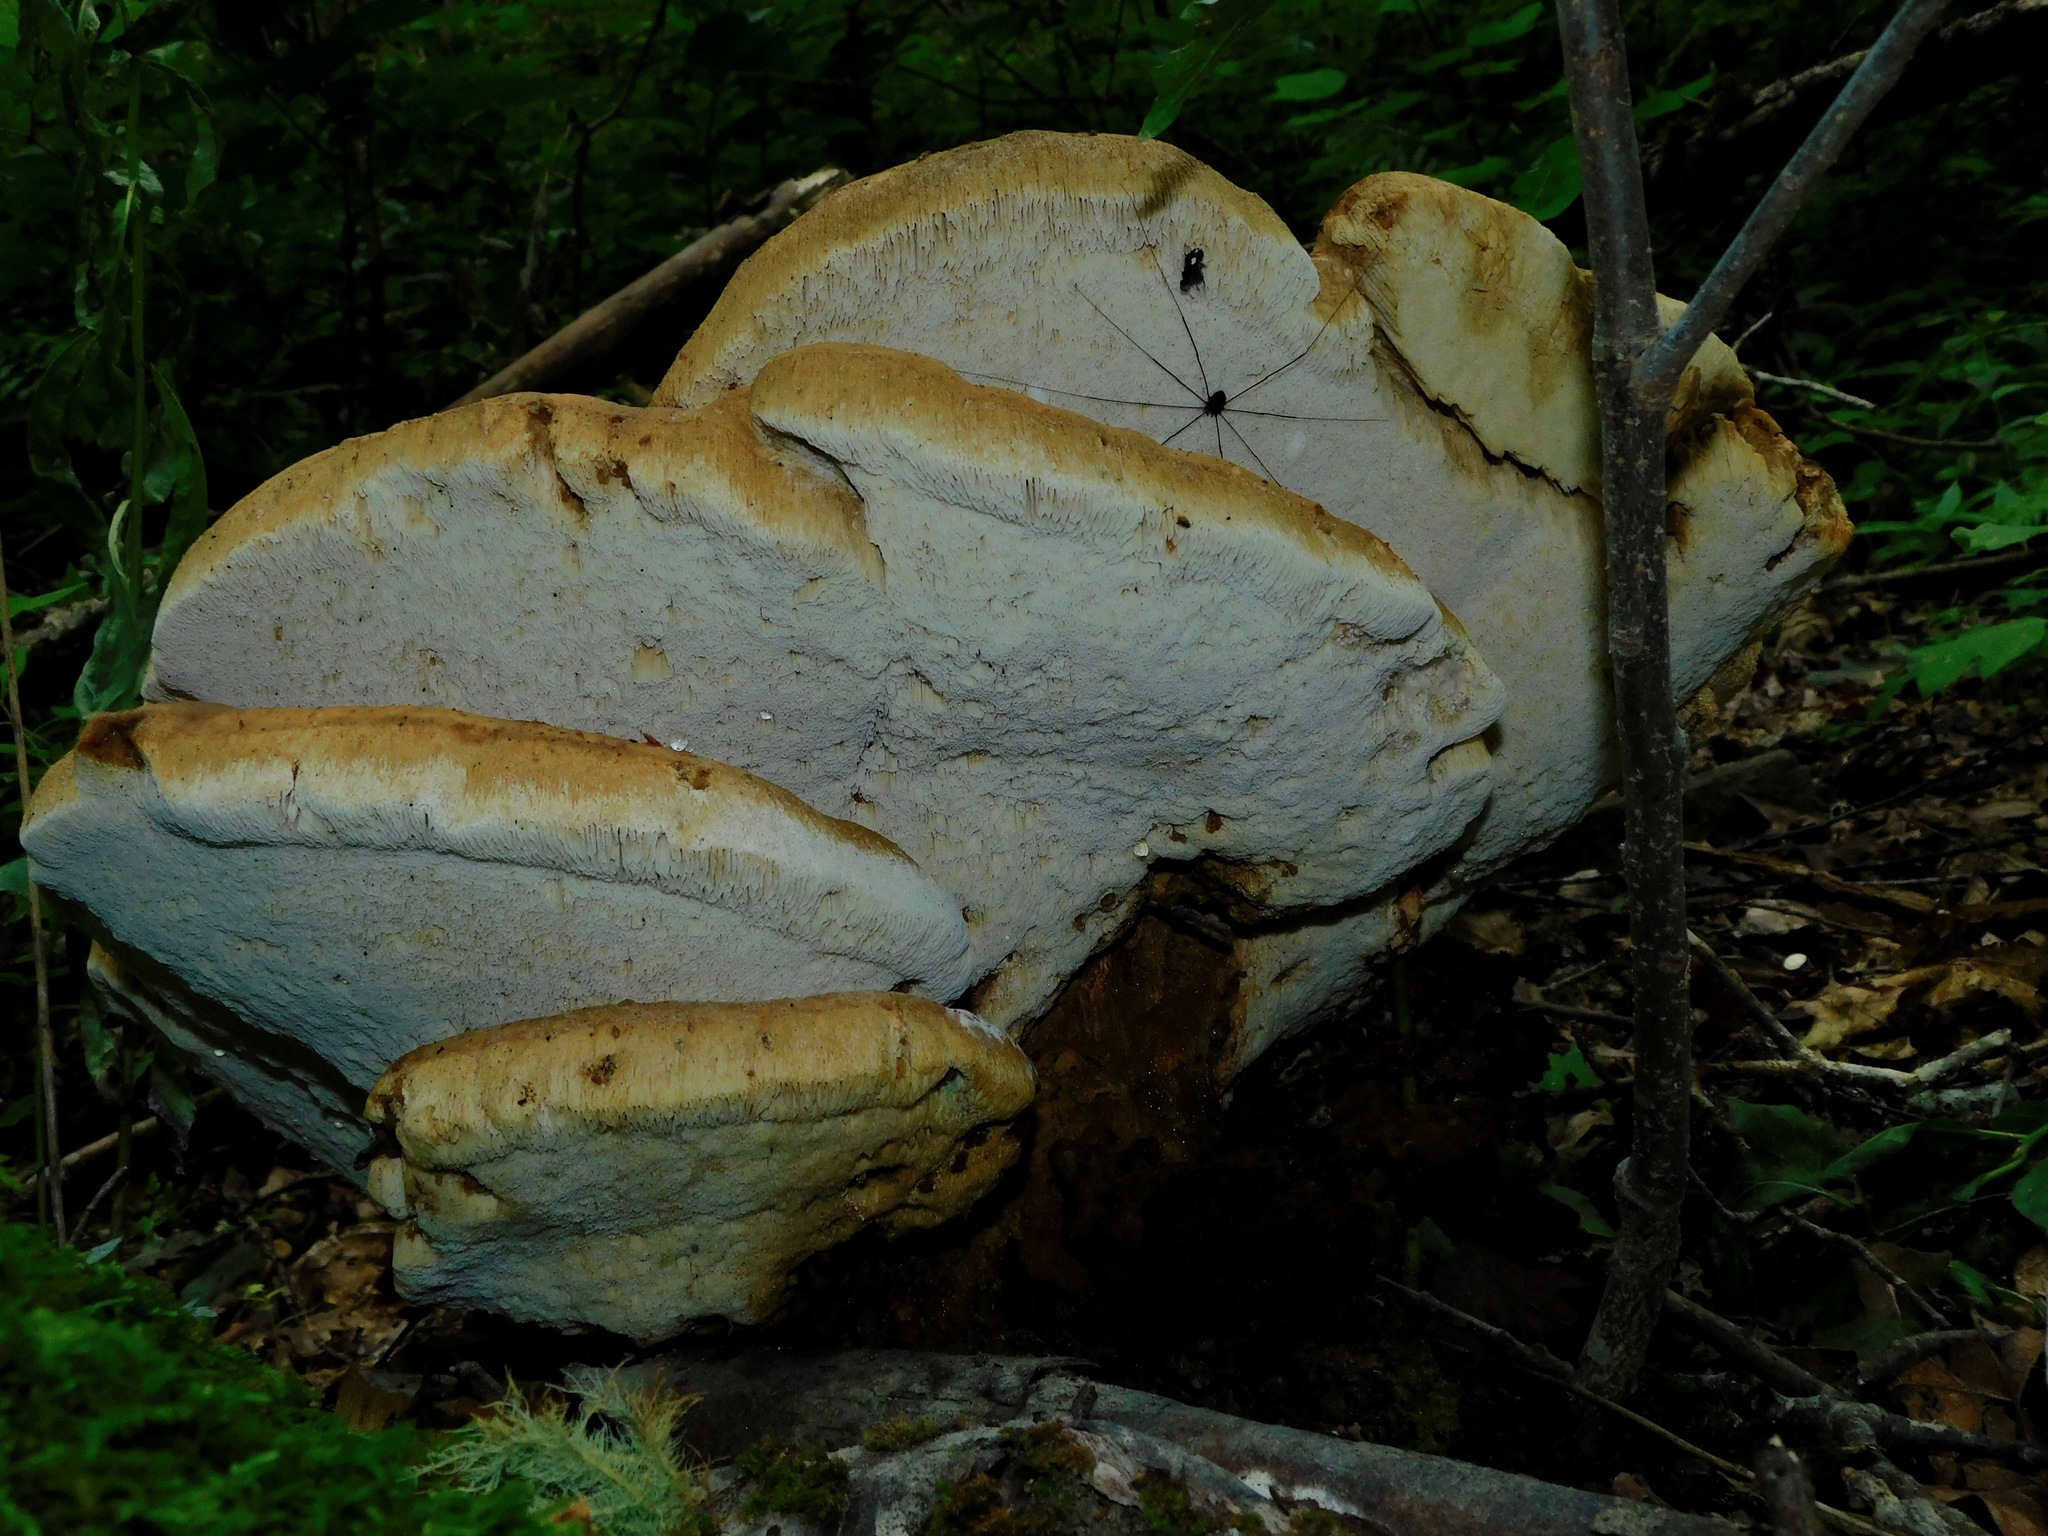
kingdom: Fungi
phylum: Basidiomycota
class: Agaricomycetes
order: Russulales
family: Bondarzewiaceae
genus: Bondarzewia
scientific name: Bondarzewia berkeleyi
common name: Berkeley's polypore
